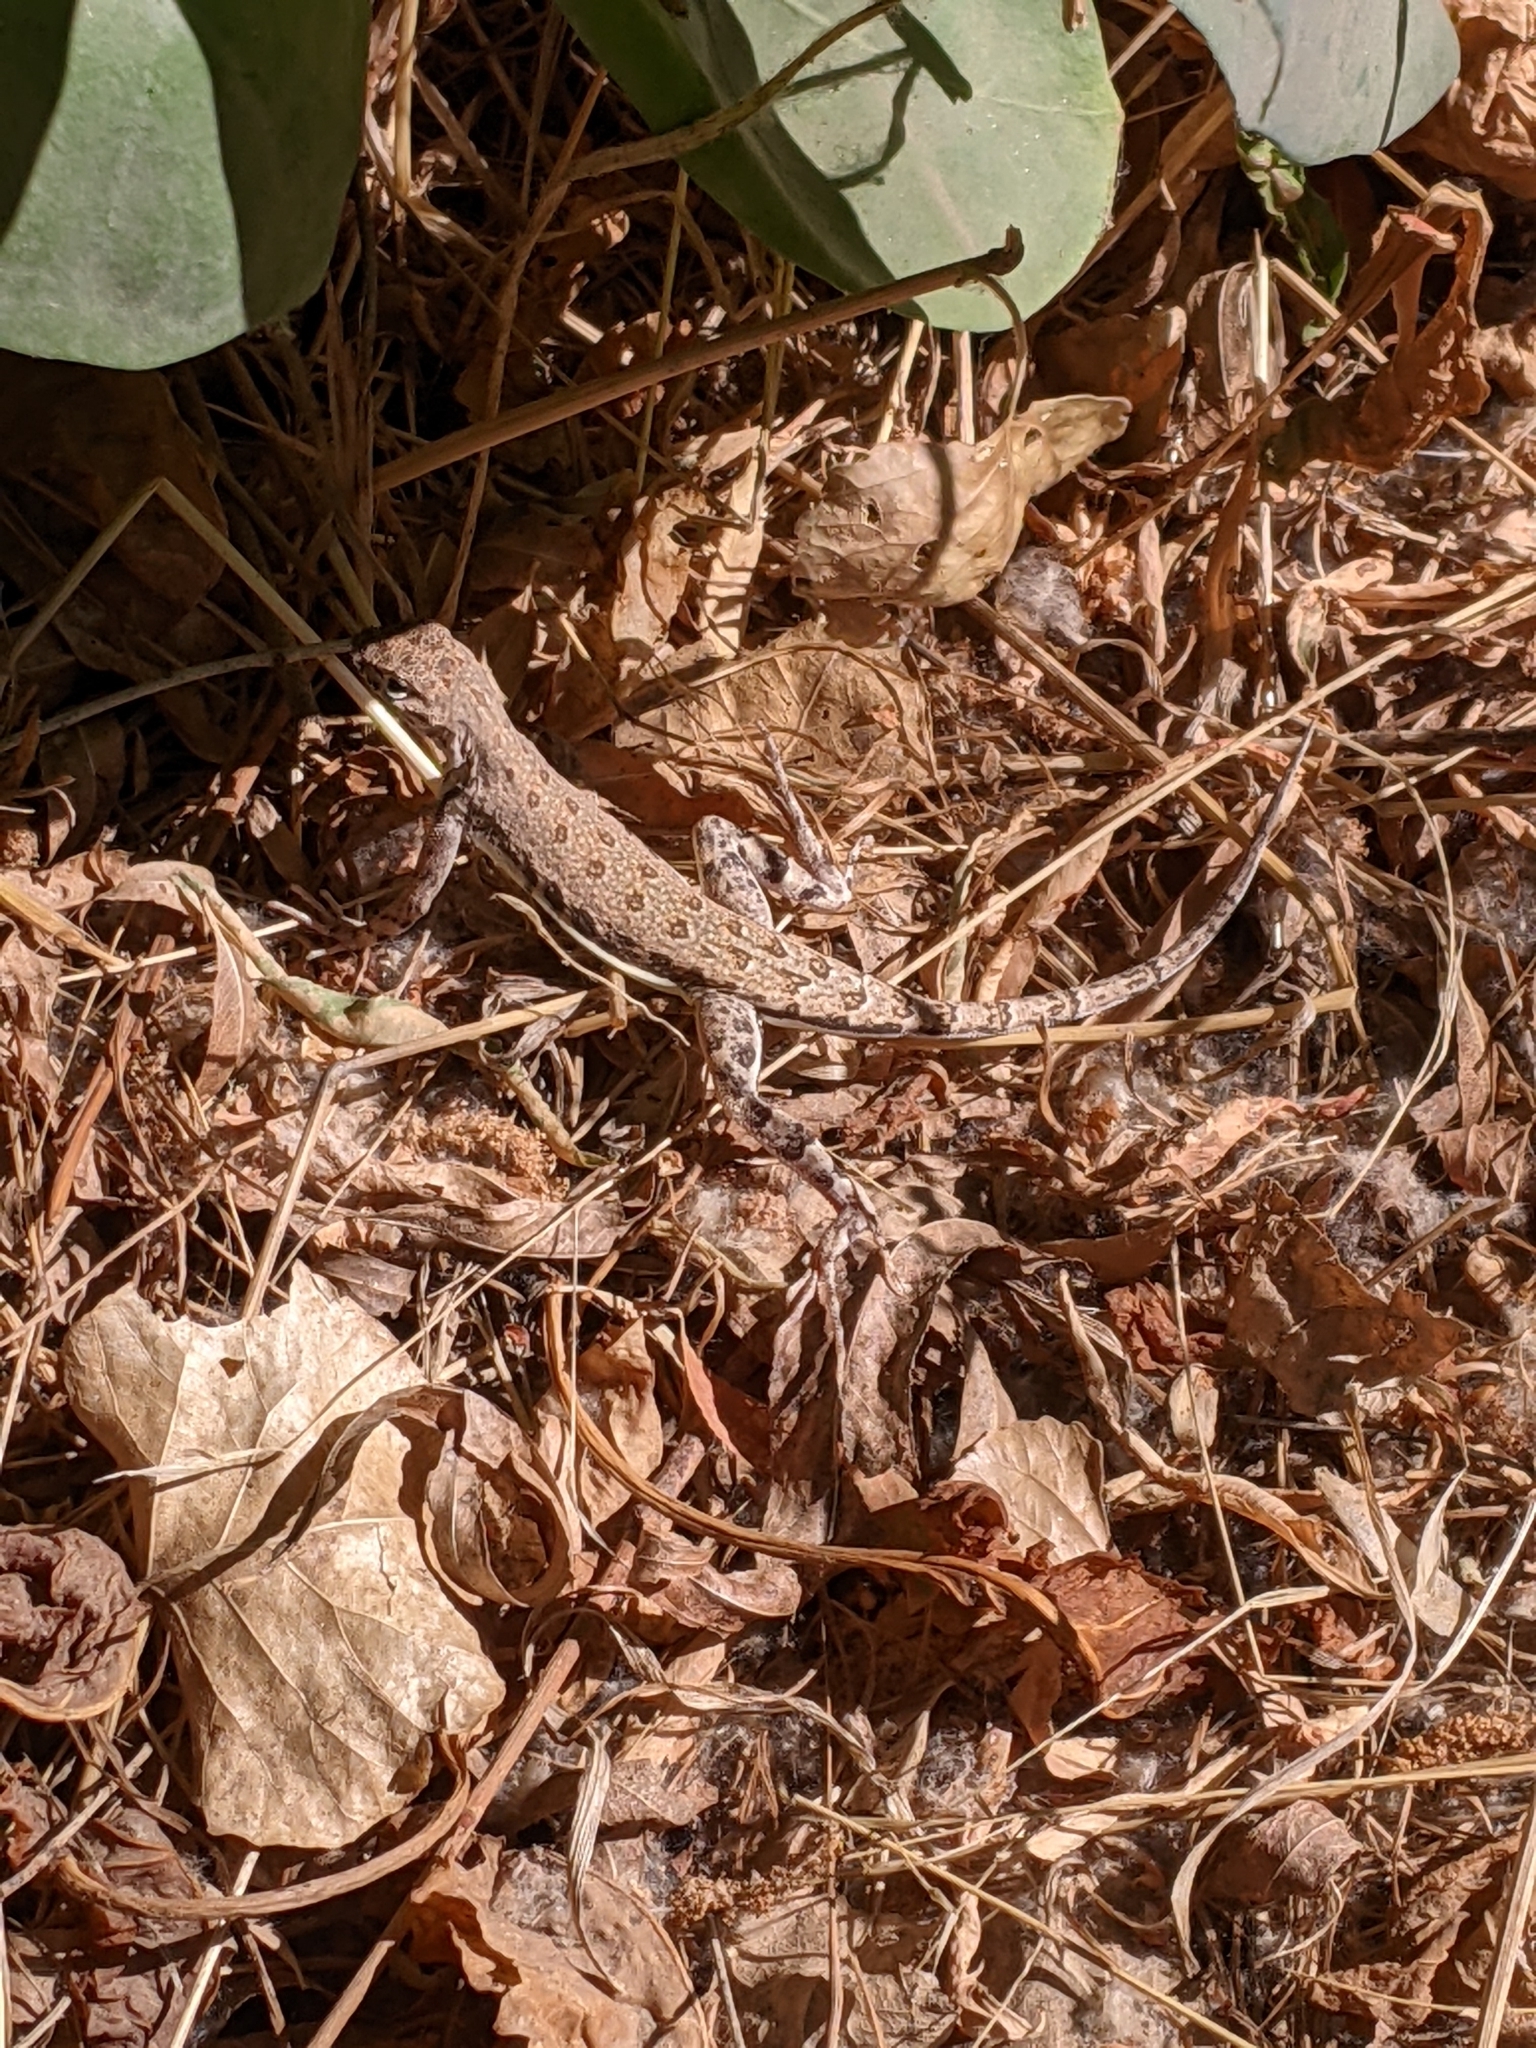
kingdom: Animalia
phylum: Chordata
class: Squamata
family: Phrynosomatidae
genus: Callisaurus
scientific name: Callisaurus draconoides
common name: Zebra-tailed lizard
